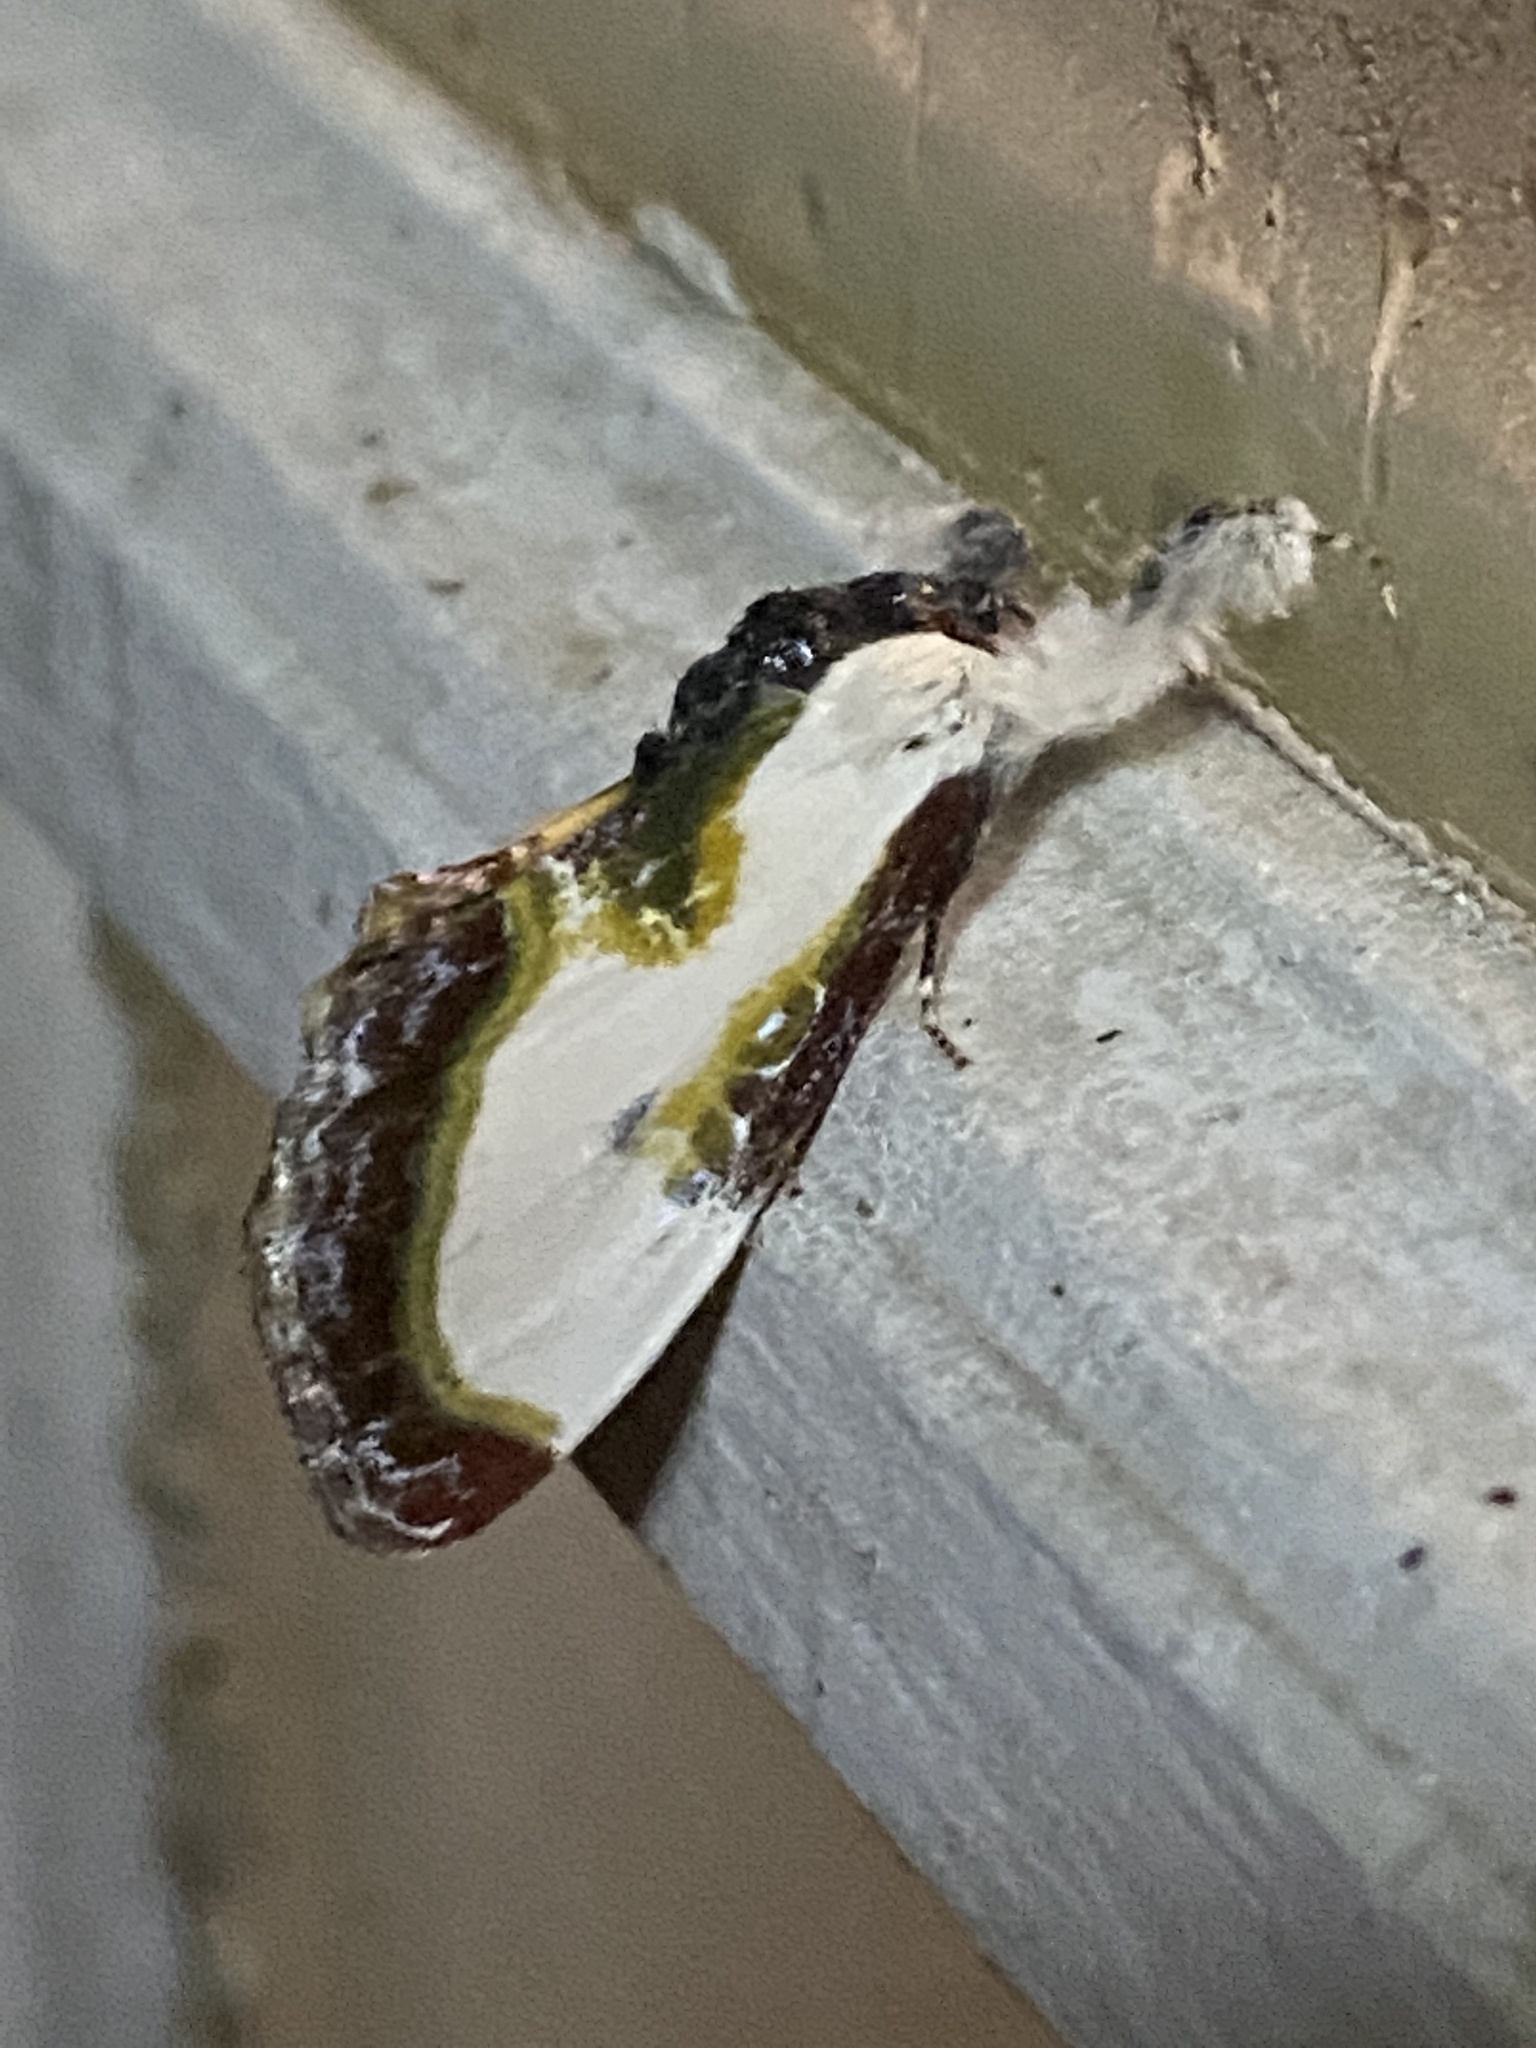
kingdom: Animalia
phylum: Arthropoda
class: Insecta
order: Lepidoptera
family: Noctuidae
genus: Eudryas
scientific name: Eudryas grata
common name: Beautiful wood-nymph
